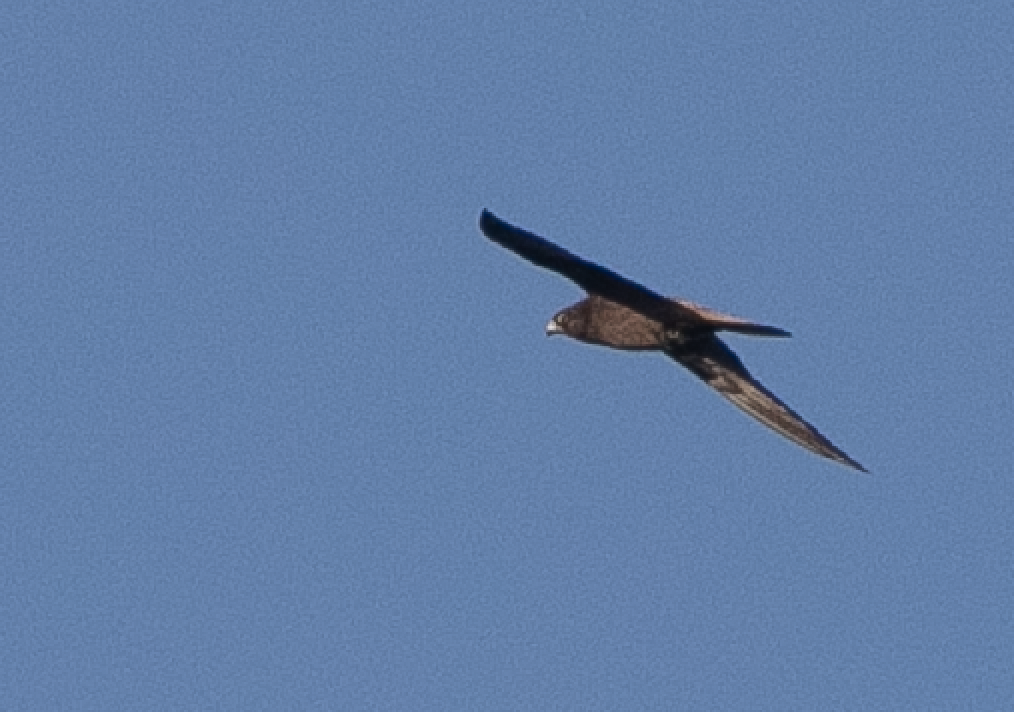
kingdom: Animalia
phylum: Chordata
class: Aves
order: Falconiformes
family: Falconidae
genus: Falco
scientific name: Falco eleonorae
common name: Eleonora's falcon
